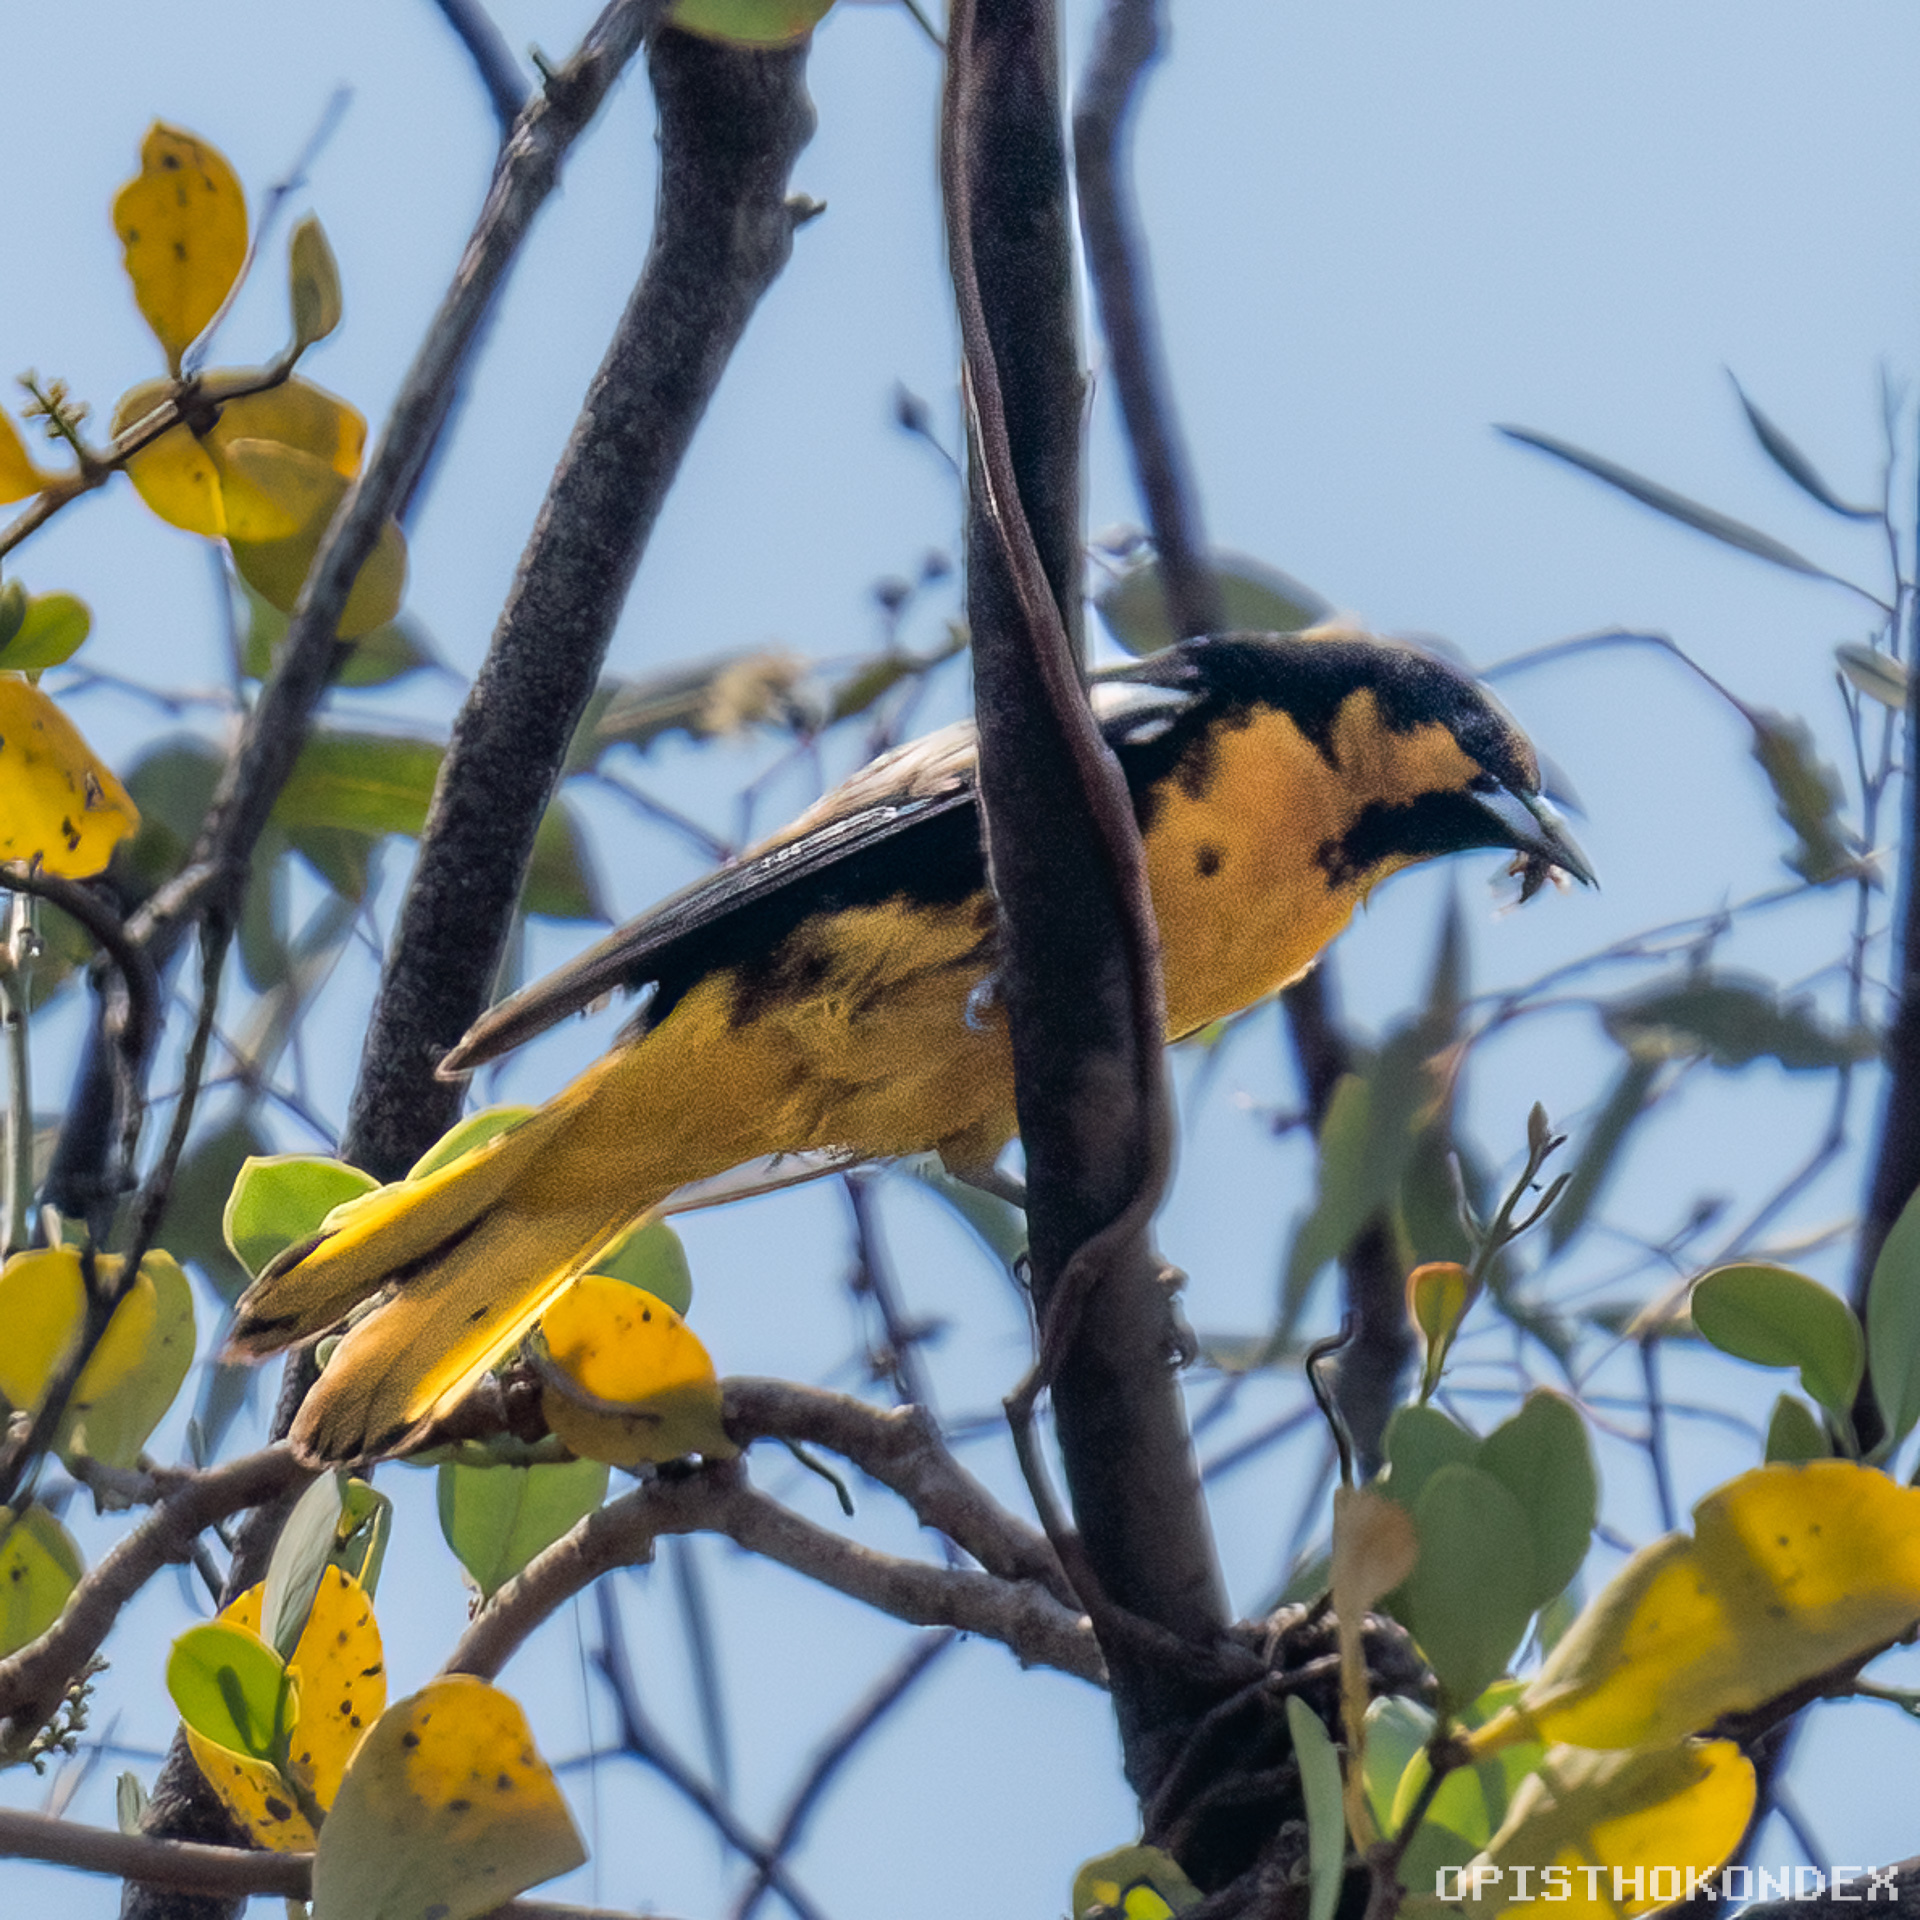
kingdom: Animalia
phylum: Chordata
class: Aves
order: Passeriformes
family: Icteridae
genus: Icterus
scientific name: Icterus abeillei
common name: Black-backed oriole
